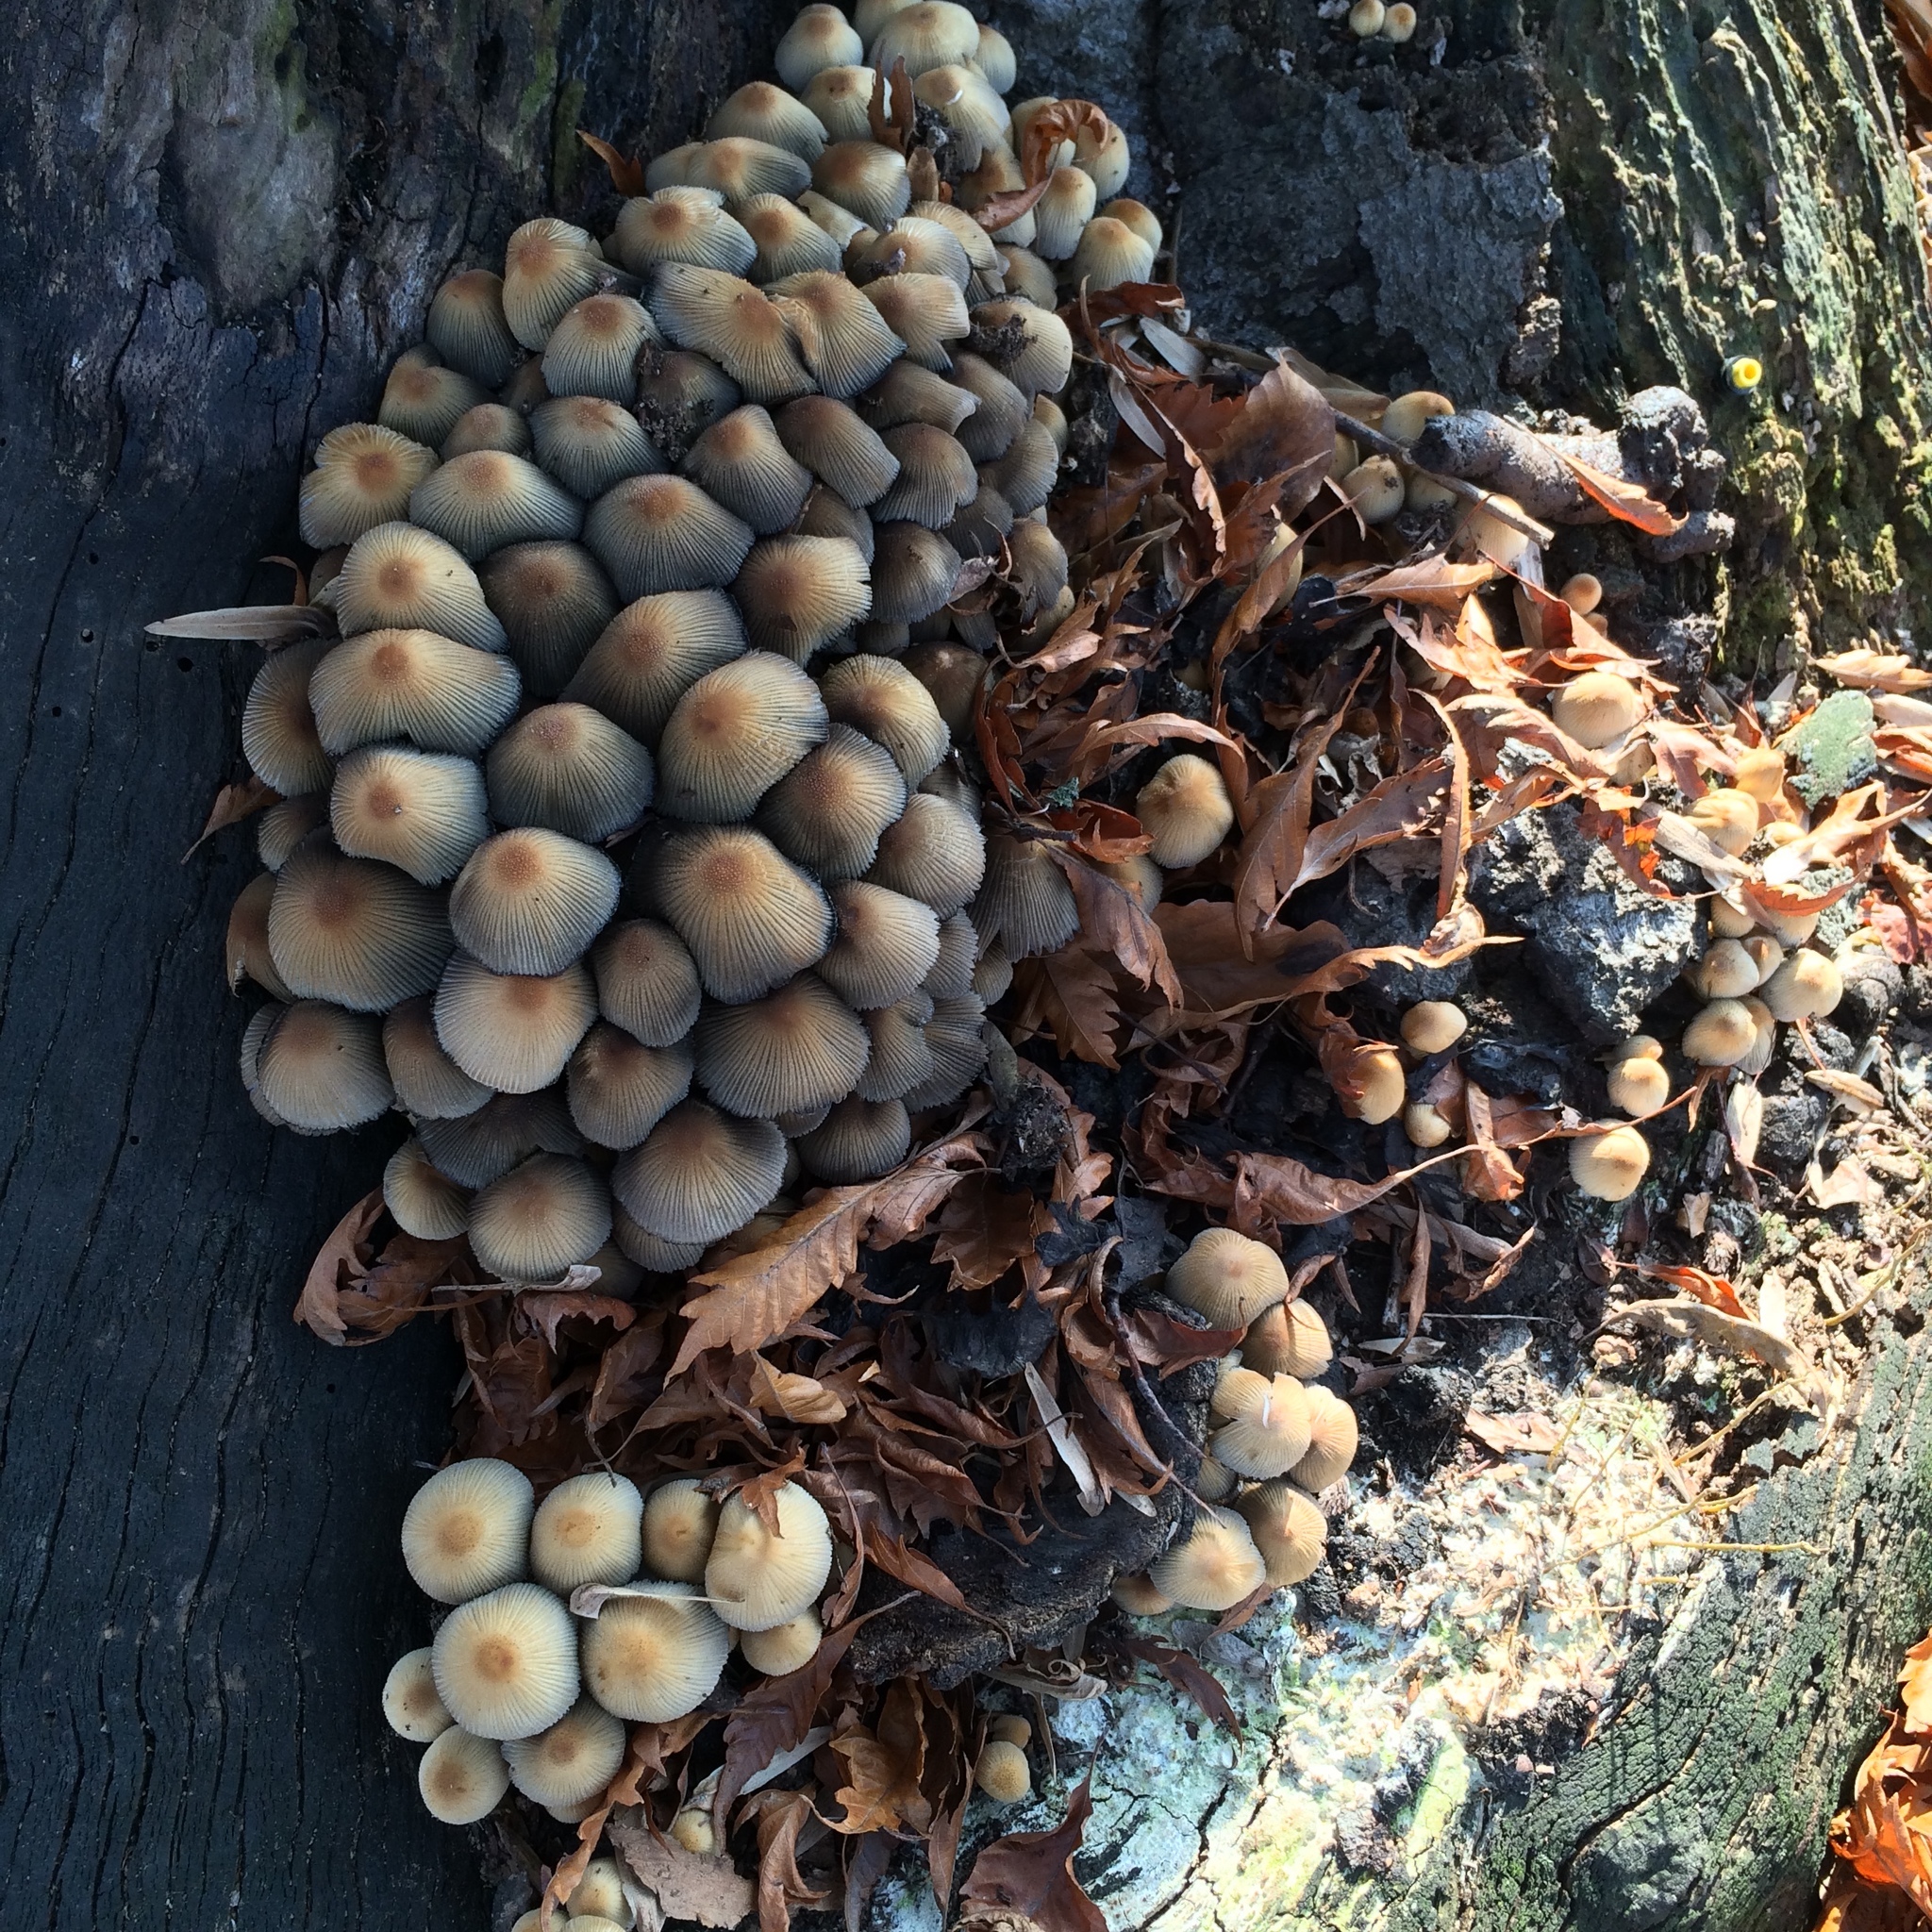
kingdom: Fungi
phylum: Basidiomycota
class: Agaricomycetes
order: Agaricales
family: Psathyrellaceae
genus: Coprinellus
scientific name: Coprinellus micaceus
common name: Glistening ink-cap
